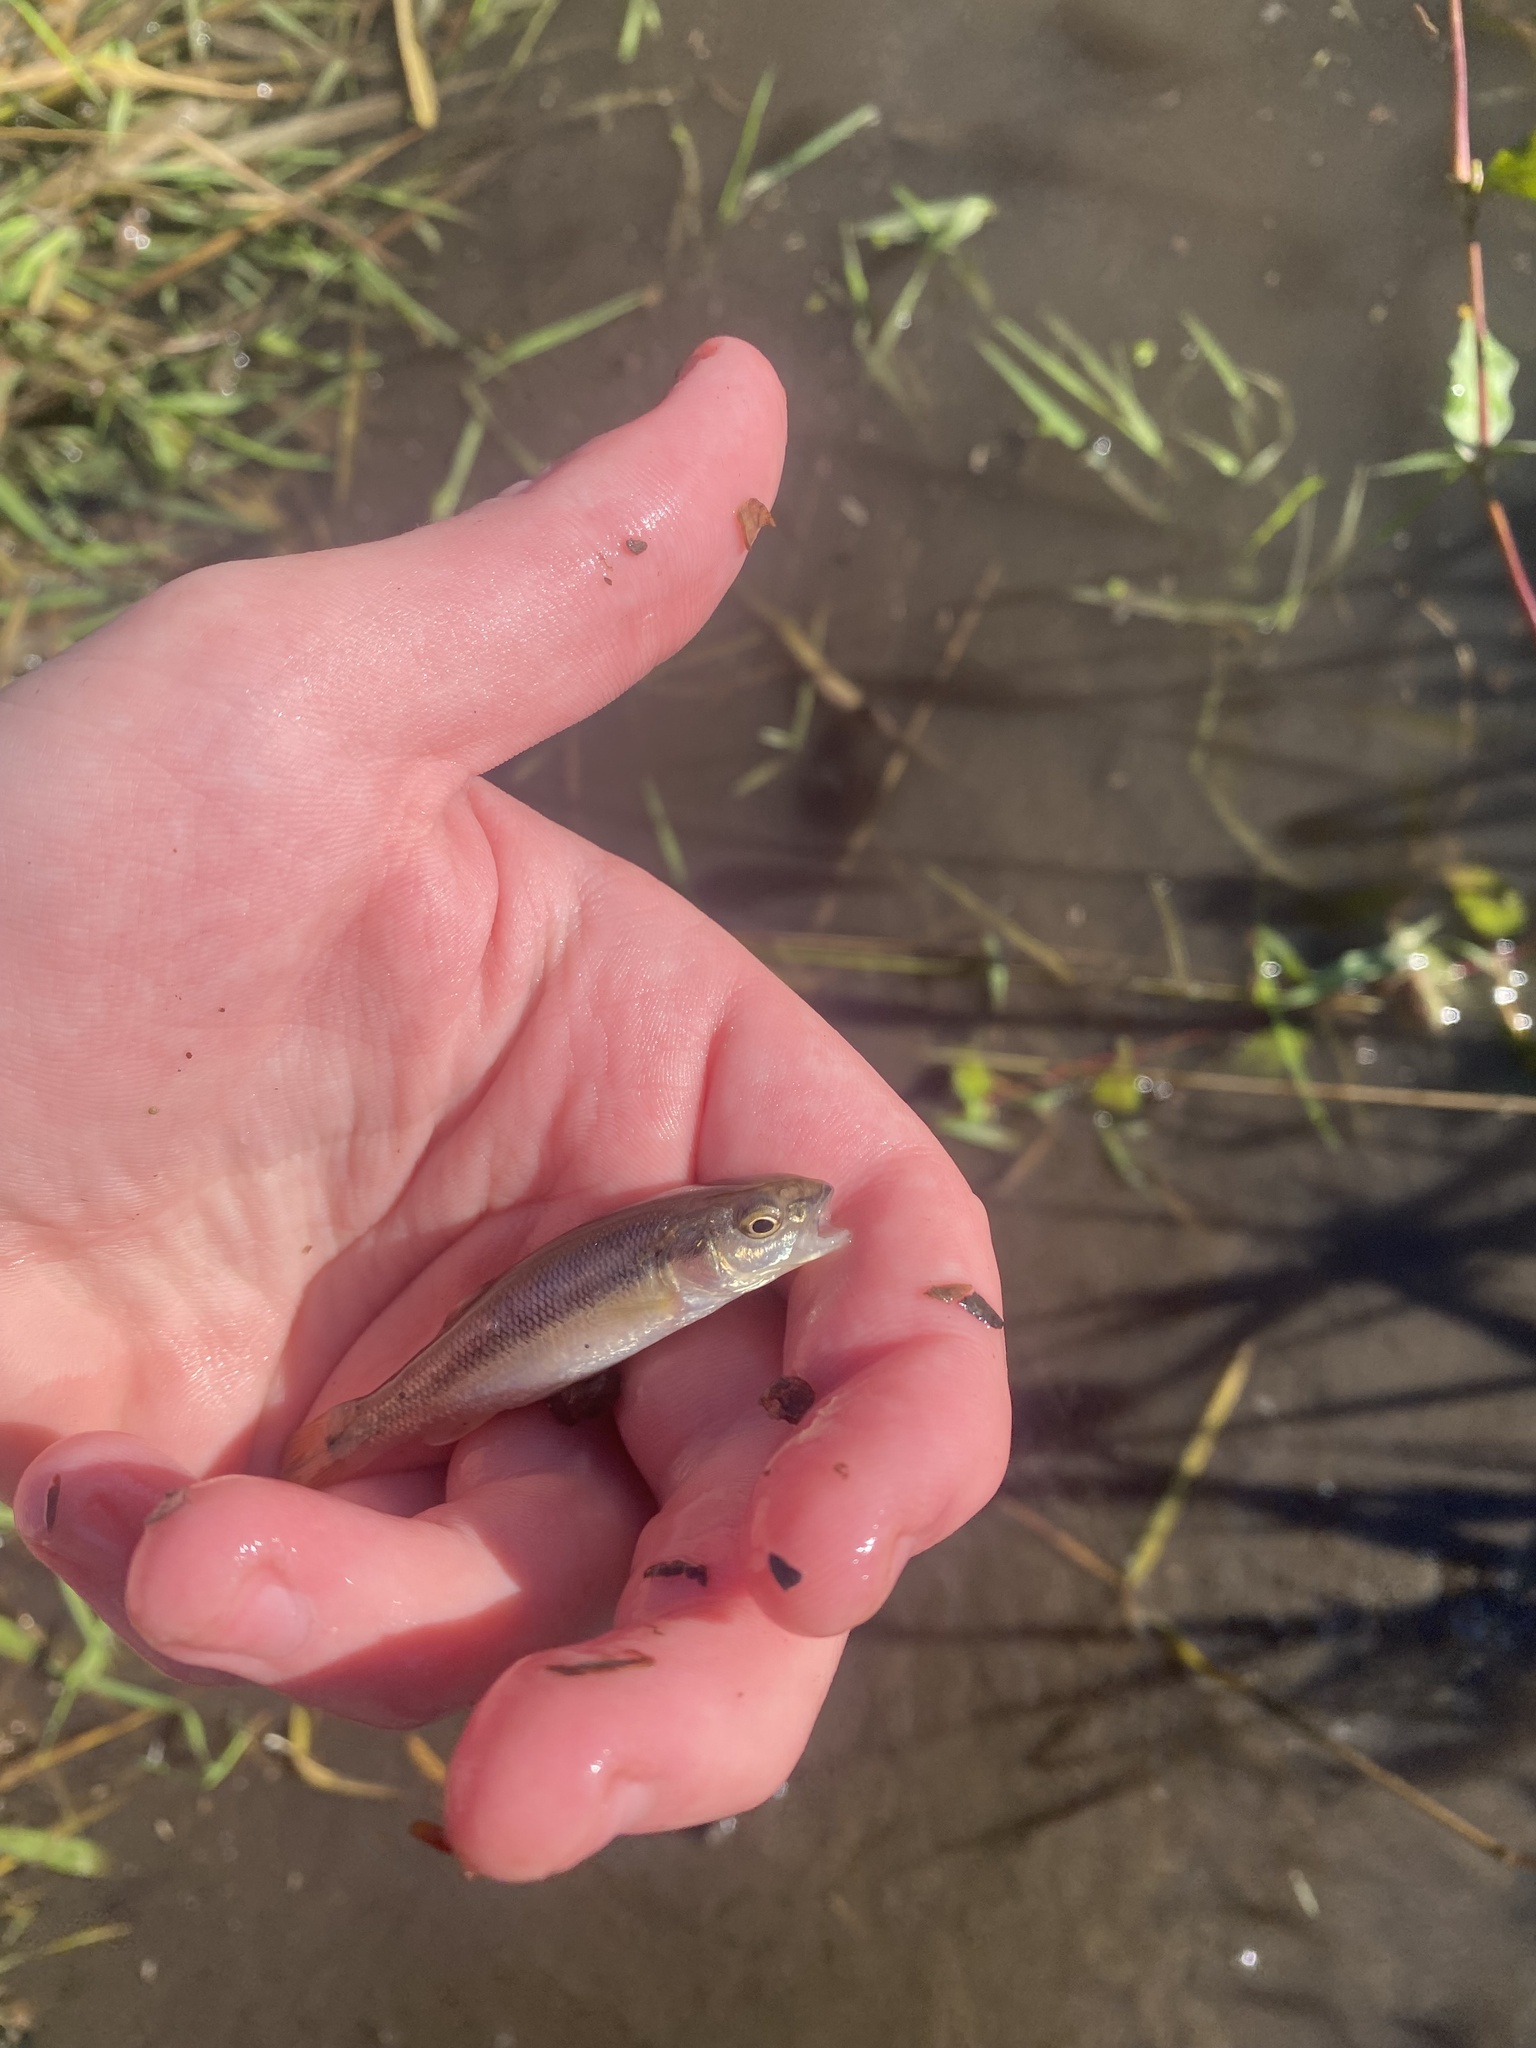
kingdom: Animalia
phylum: Chordata
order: Cypriniformes
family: Cyprinidae
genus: Semotilus
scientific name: Semotilus atromaculatus
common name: Creek chub
